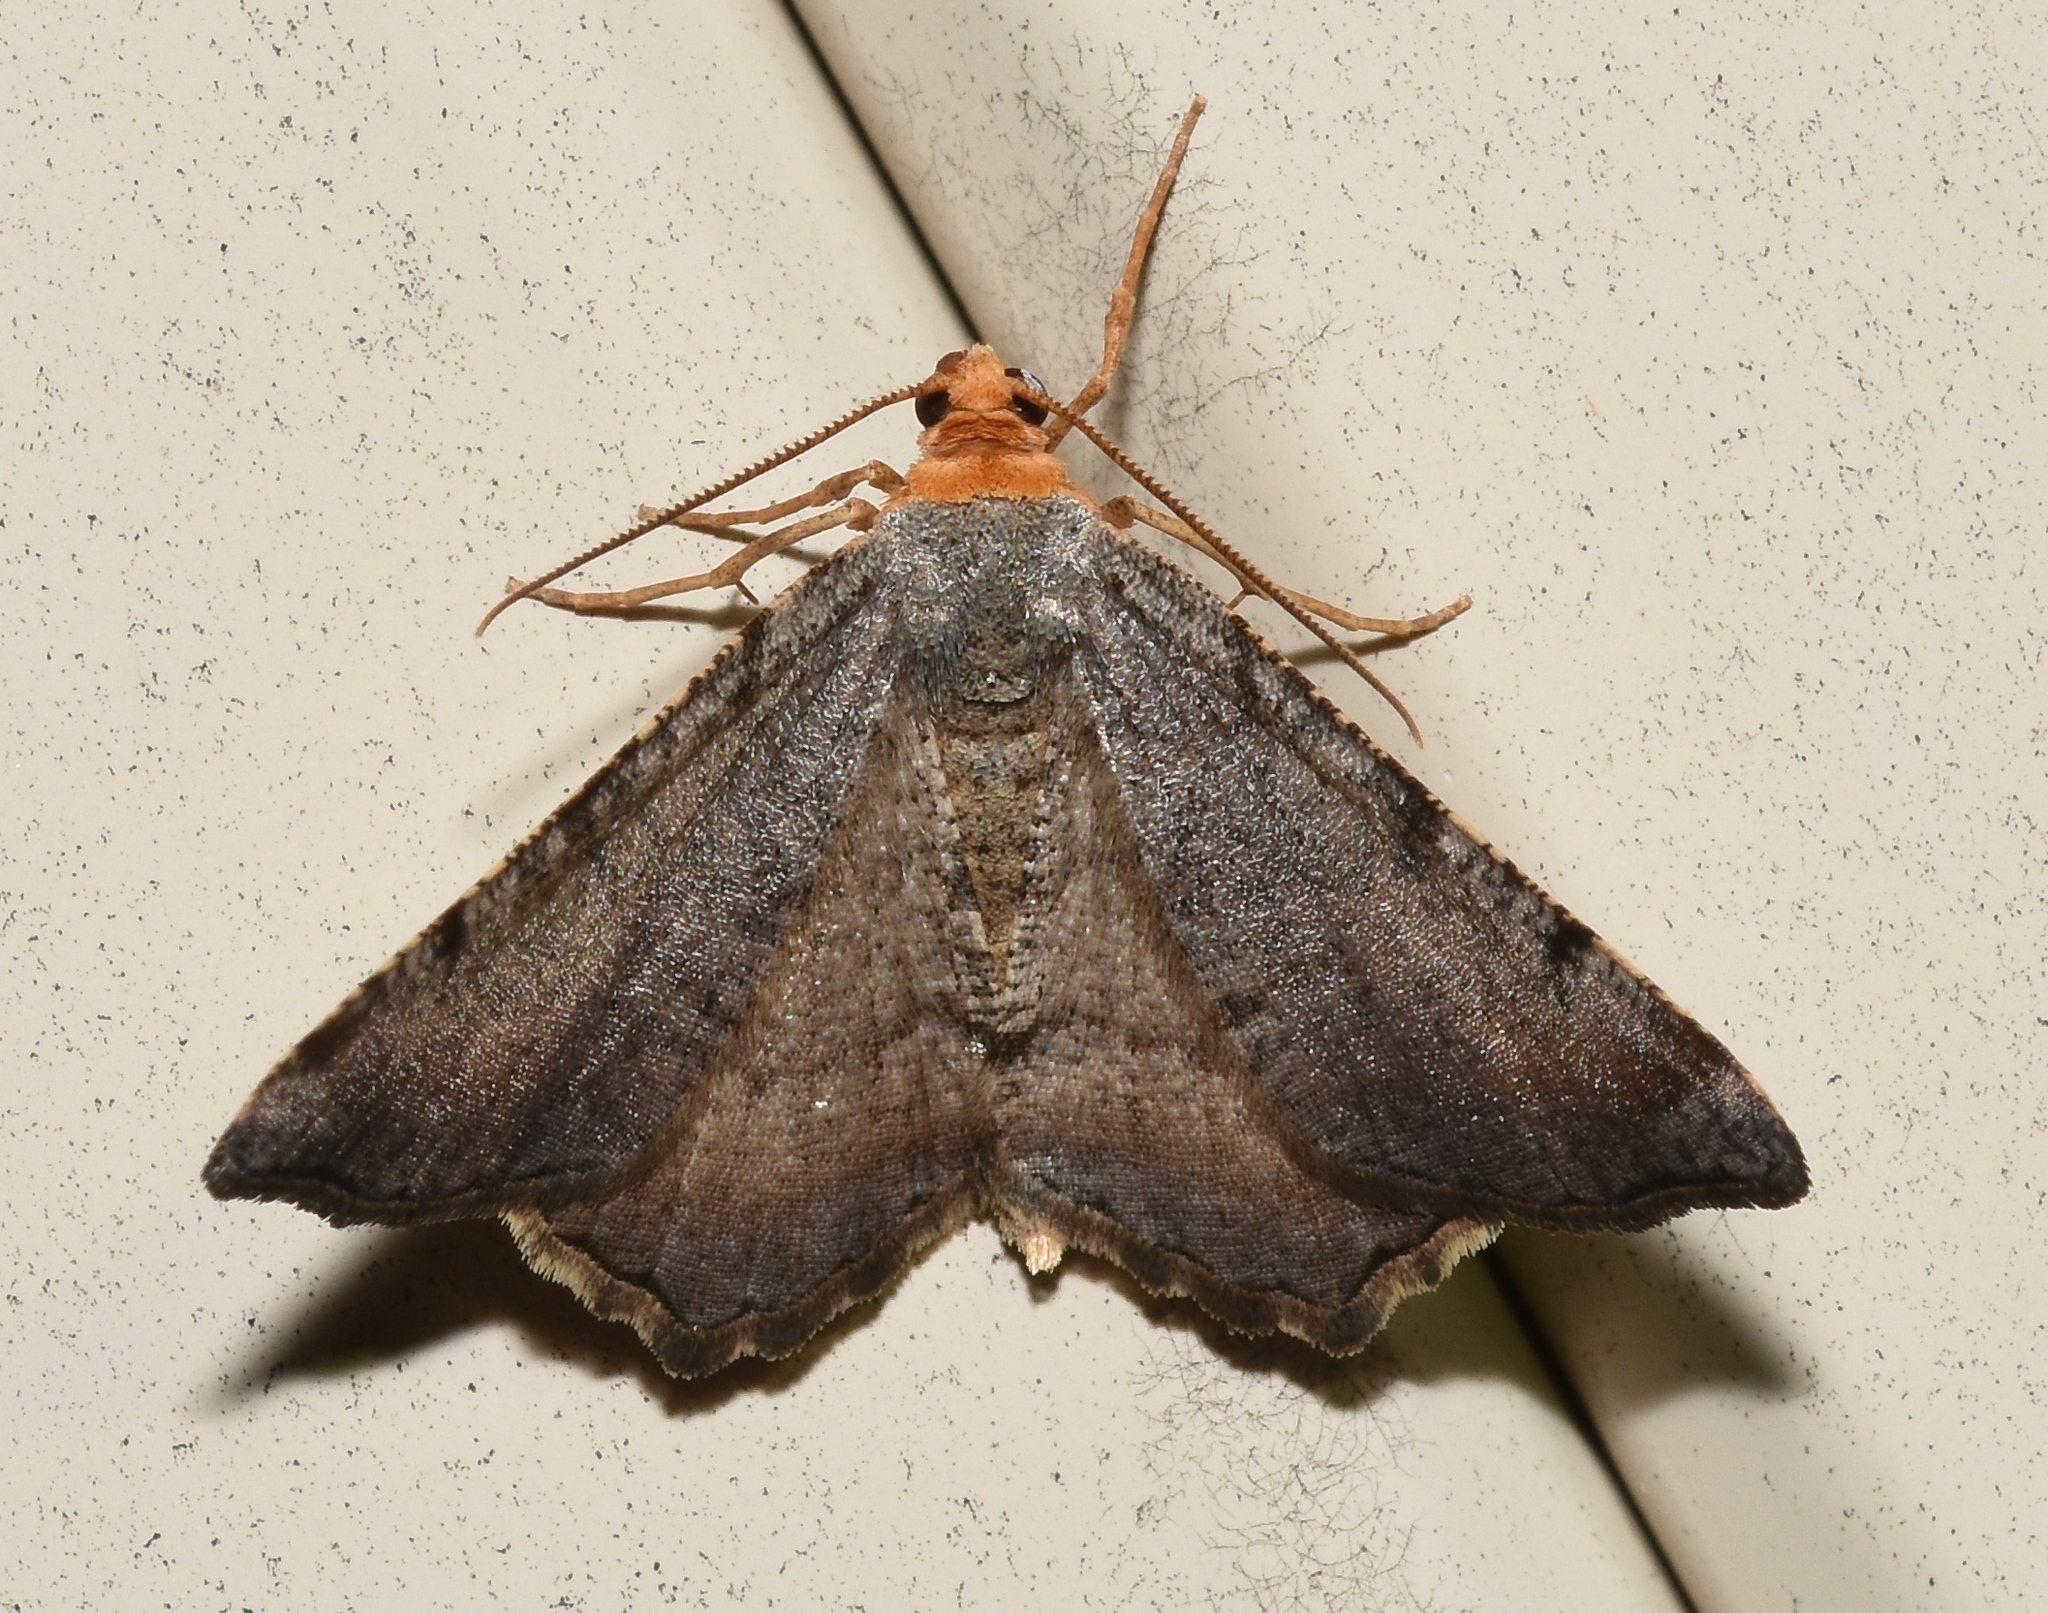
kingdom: Animalia
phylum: Arthropoda
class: Insecta
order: Lepidoptera
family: Geometridae
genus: Macaria
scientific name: Macaria transitaria
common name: Blurry chocolate angle
